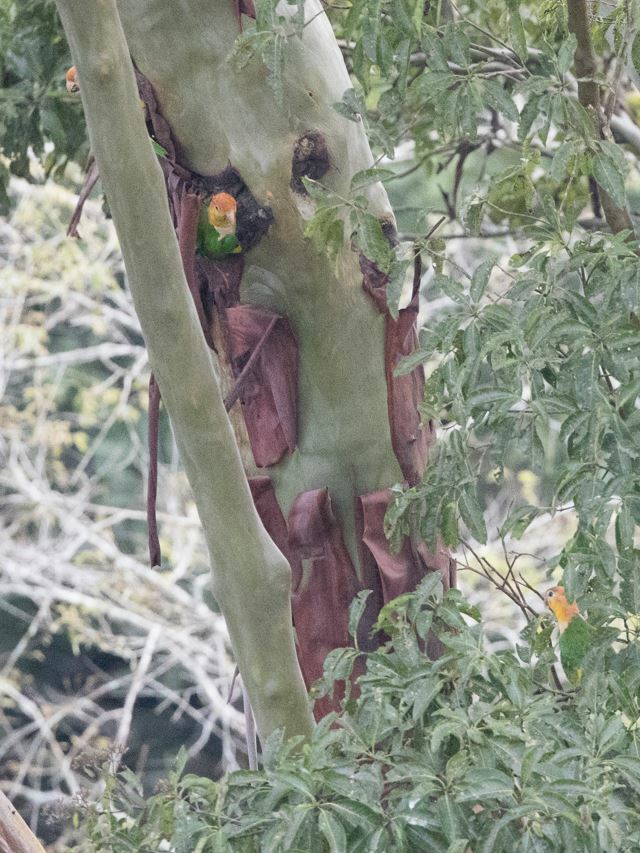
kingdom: Animalia
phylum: Chordata
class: Aves
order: Psittaciformes
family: Psittacidae
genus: Pionites
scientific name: Pionites leucogaster
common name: White-bellied parrot
